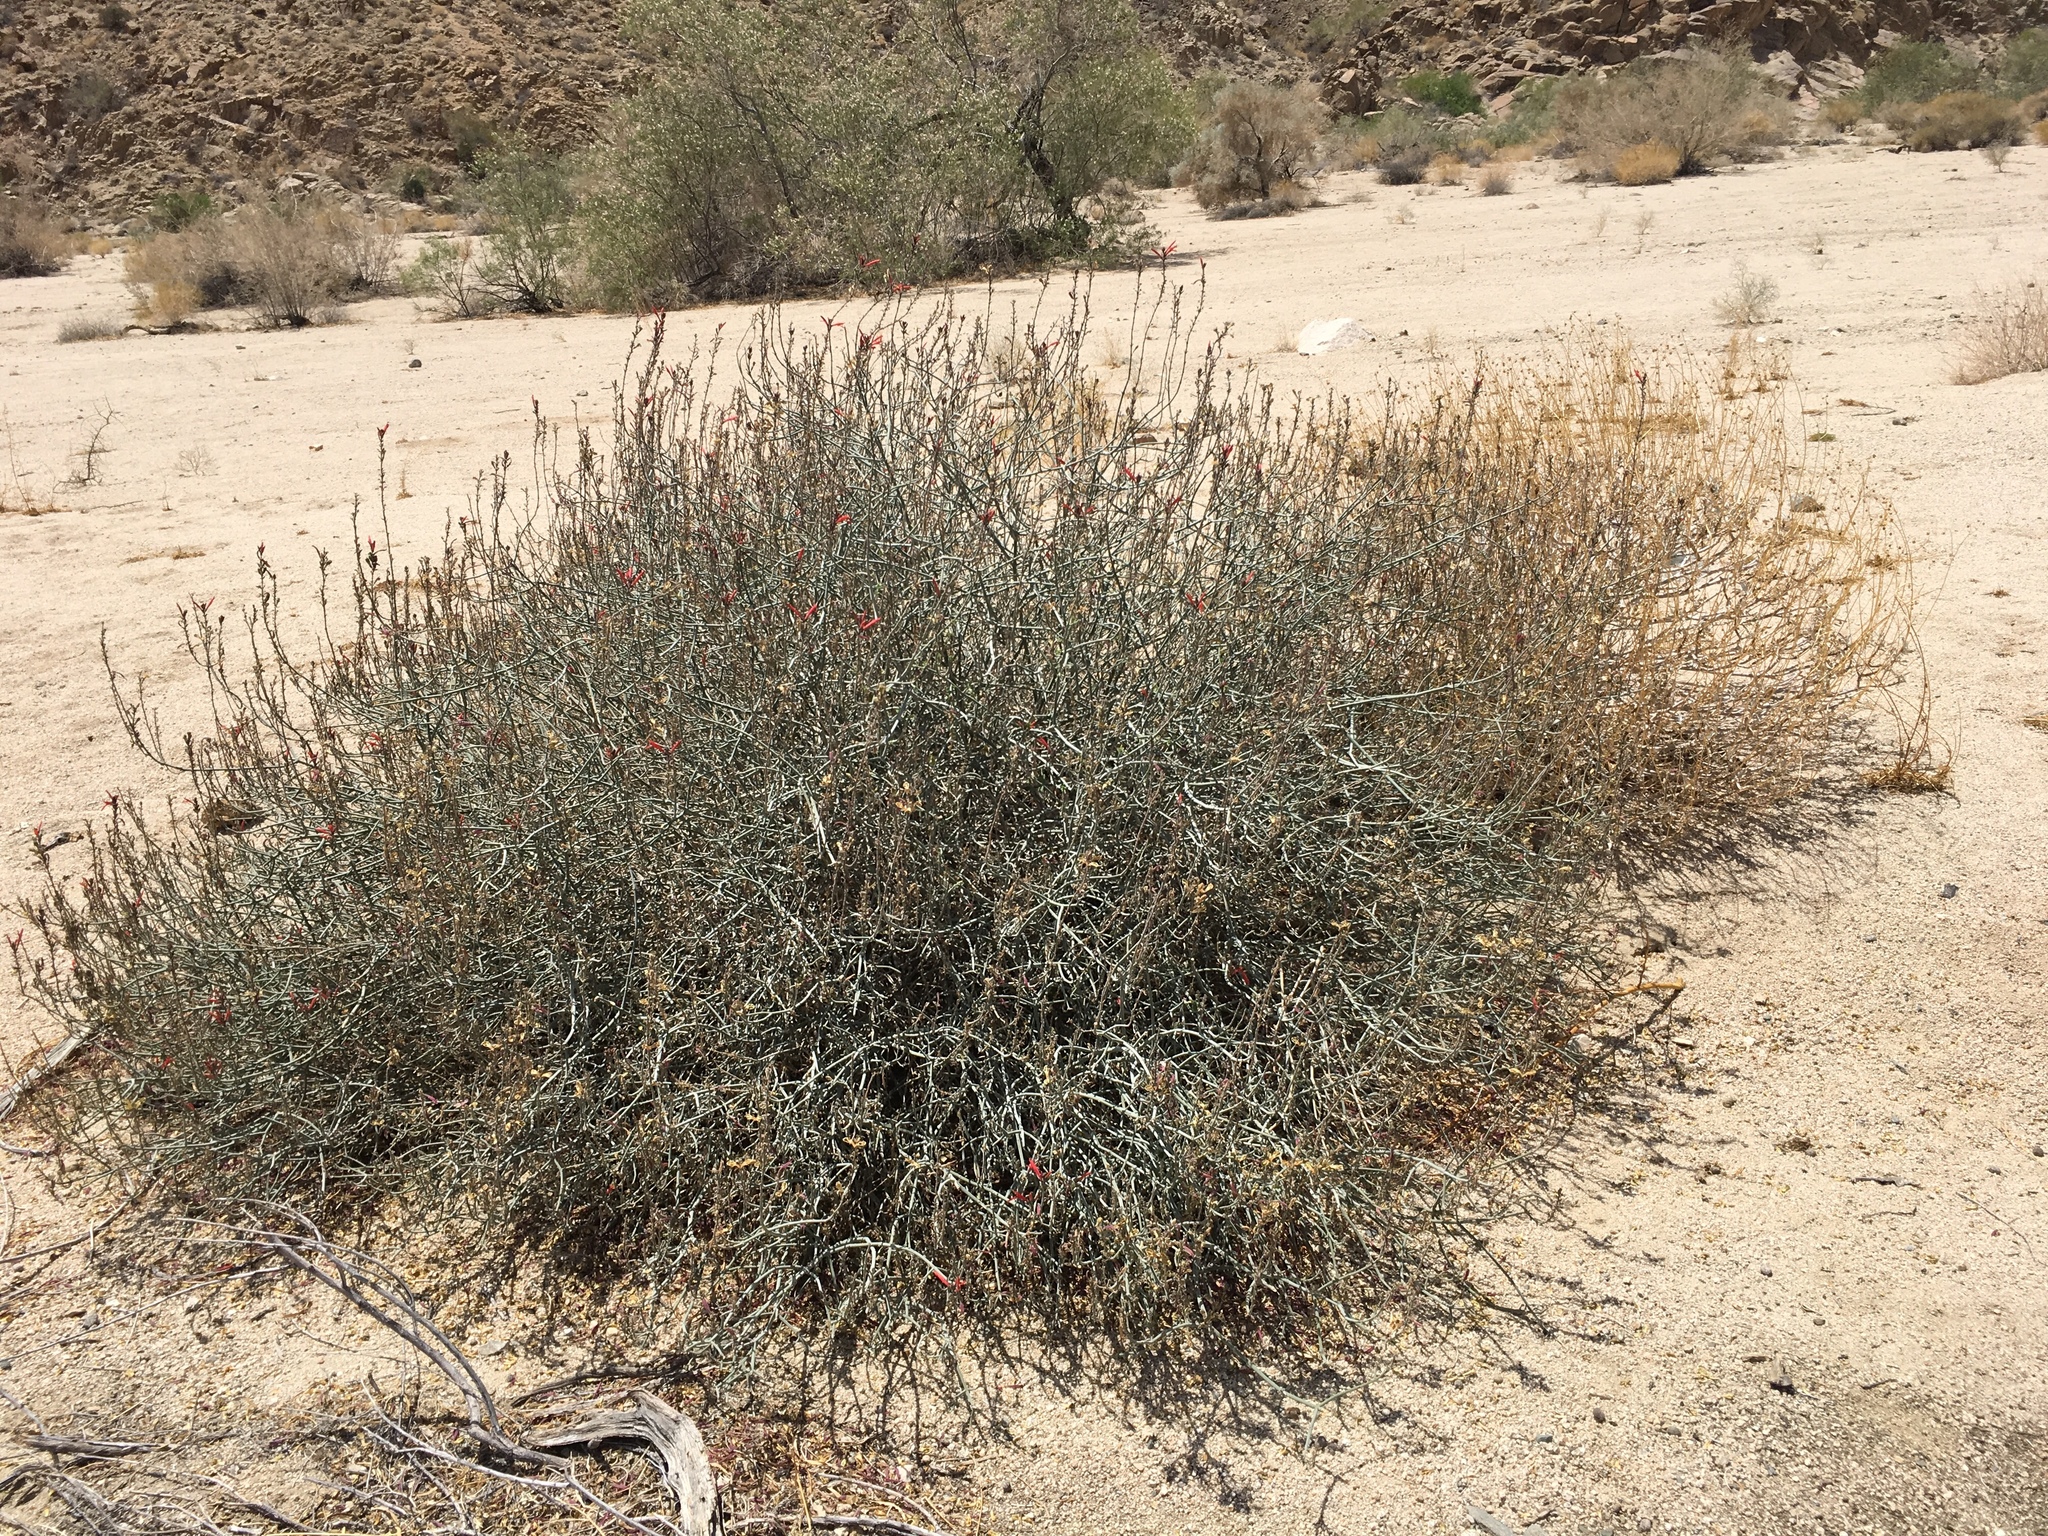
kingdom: Plantae
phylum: Tracheophyta
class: Magnoliopsida
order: Lamiales
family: Acanthaceae
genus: Justicia
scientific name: Justicia californica
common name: Chuparosa-honeysuckle
